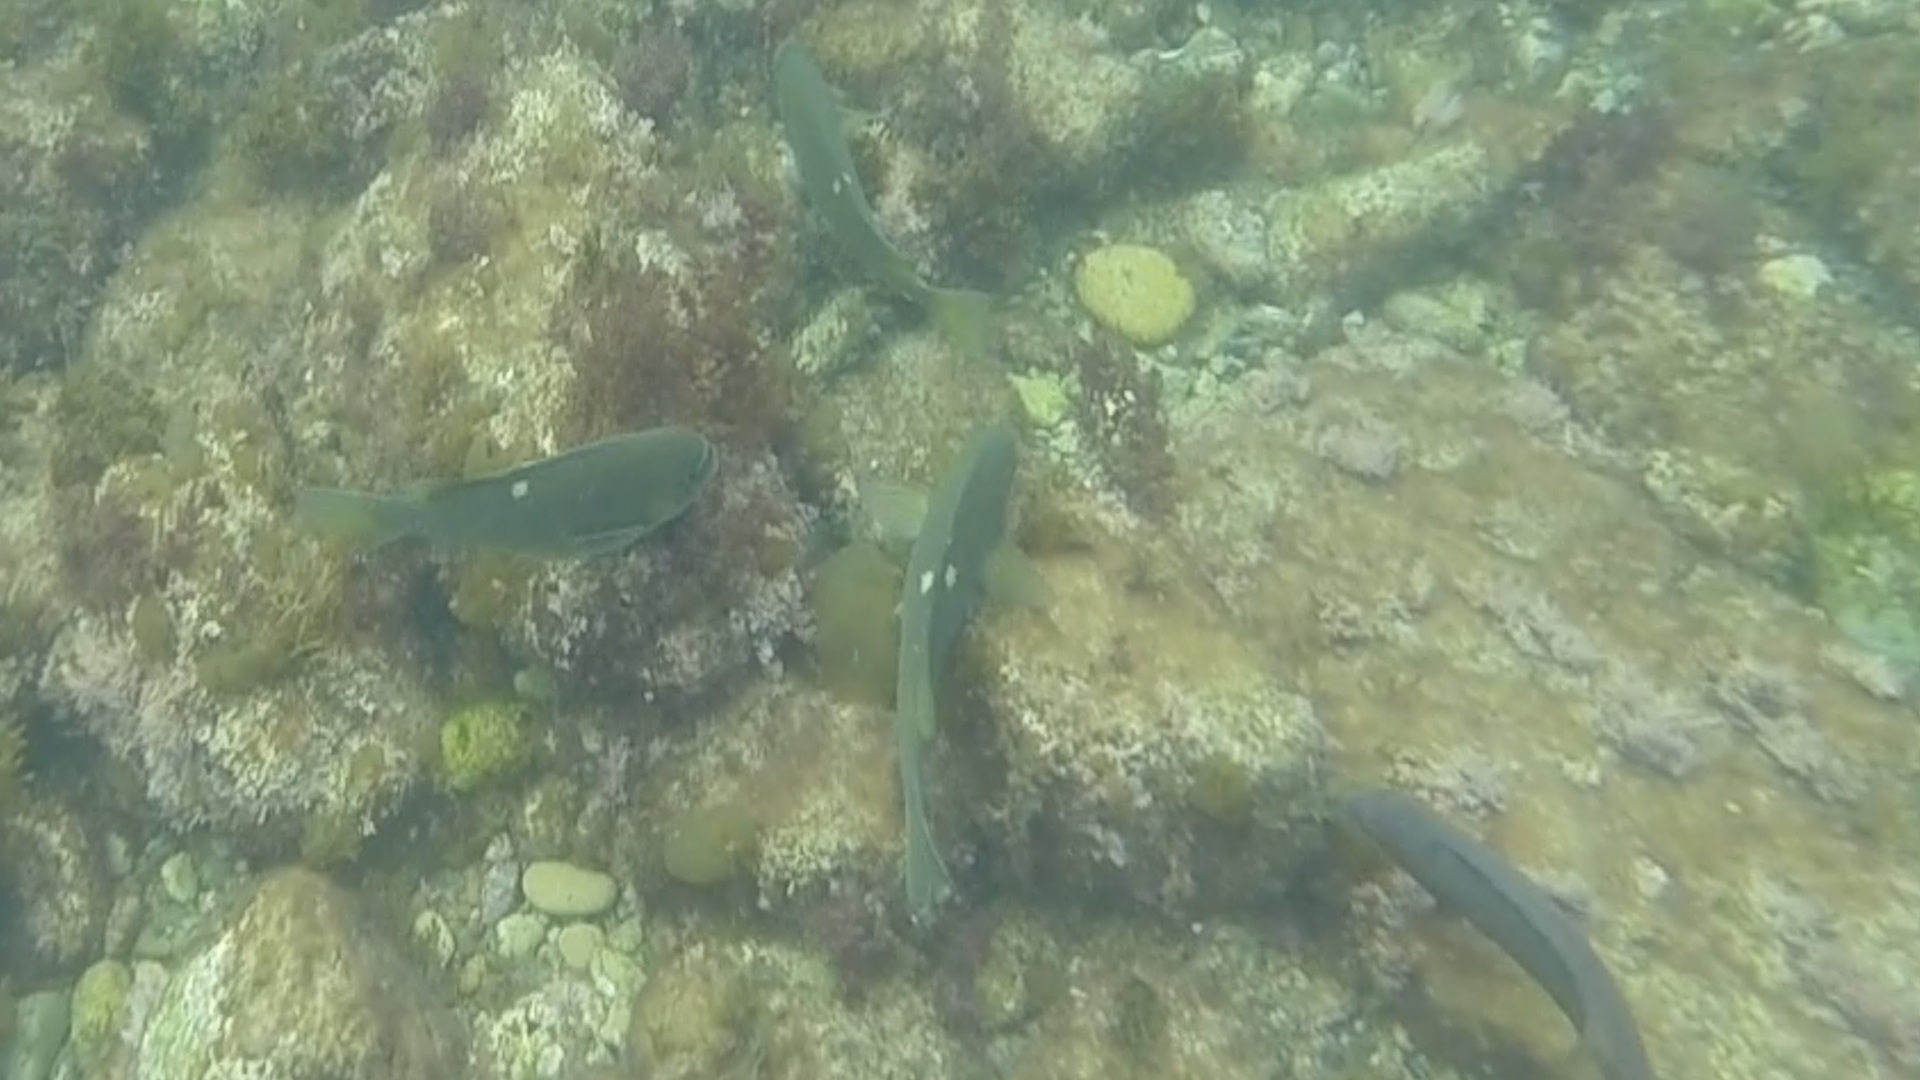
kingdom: Animalia
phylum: Chordata
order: Perciformes
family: Kyphosidae
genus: Girella
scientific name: Girella nigricans
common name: Opaleye
